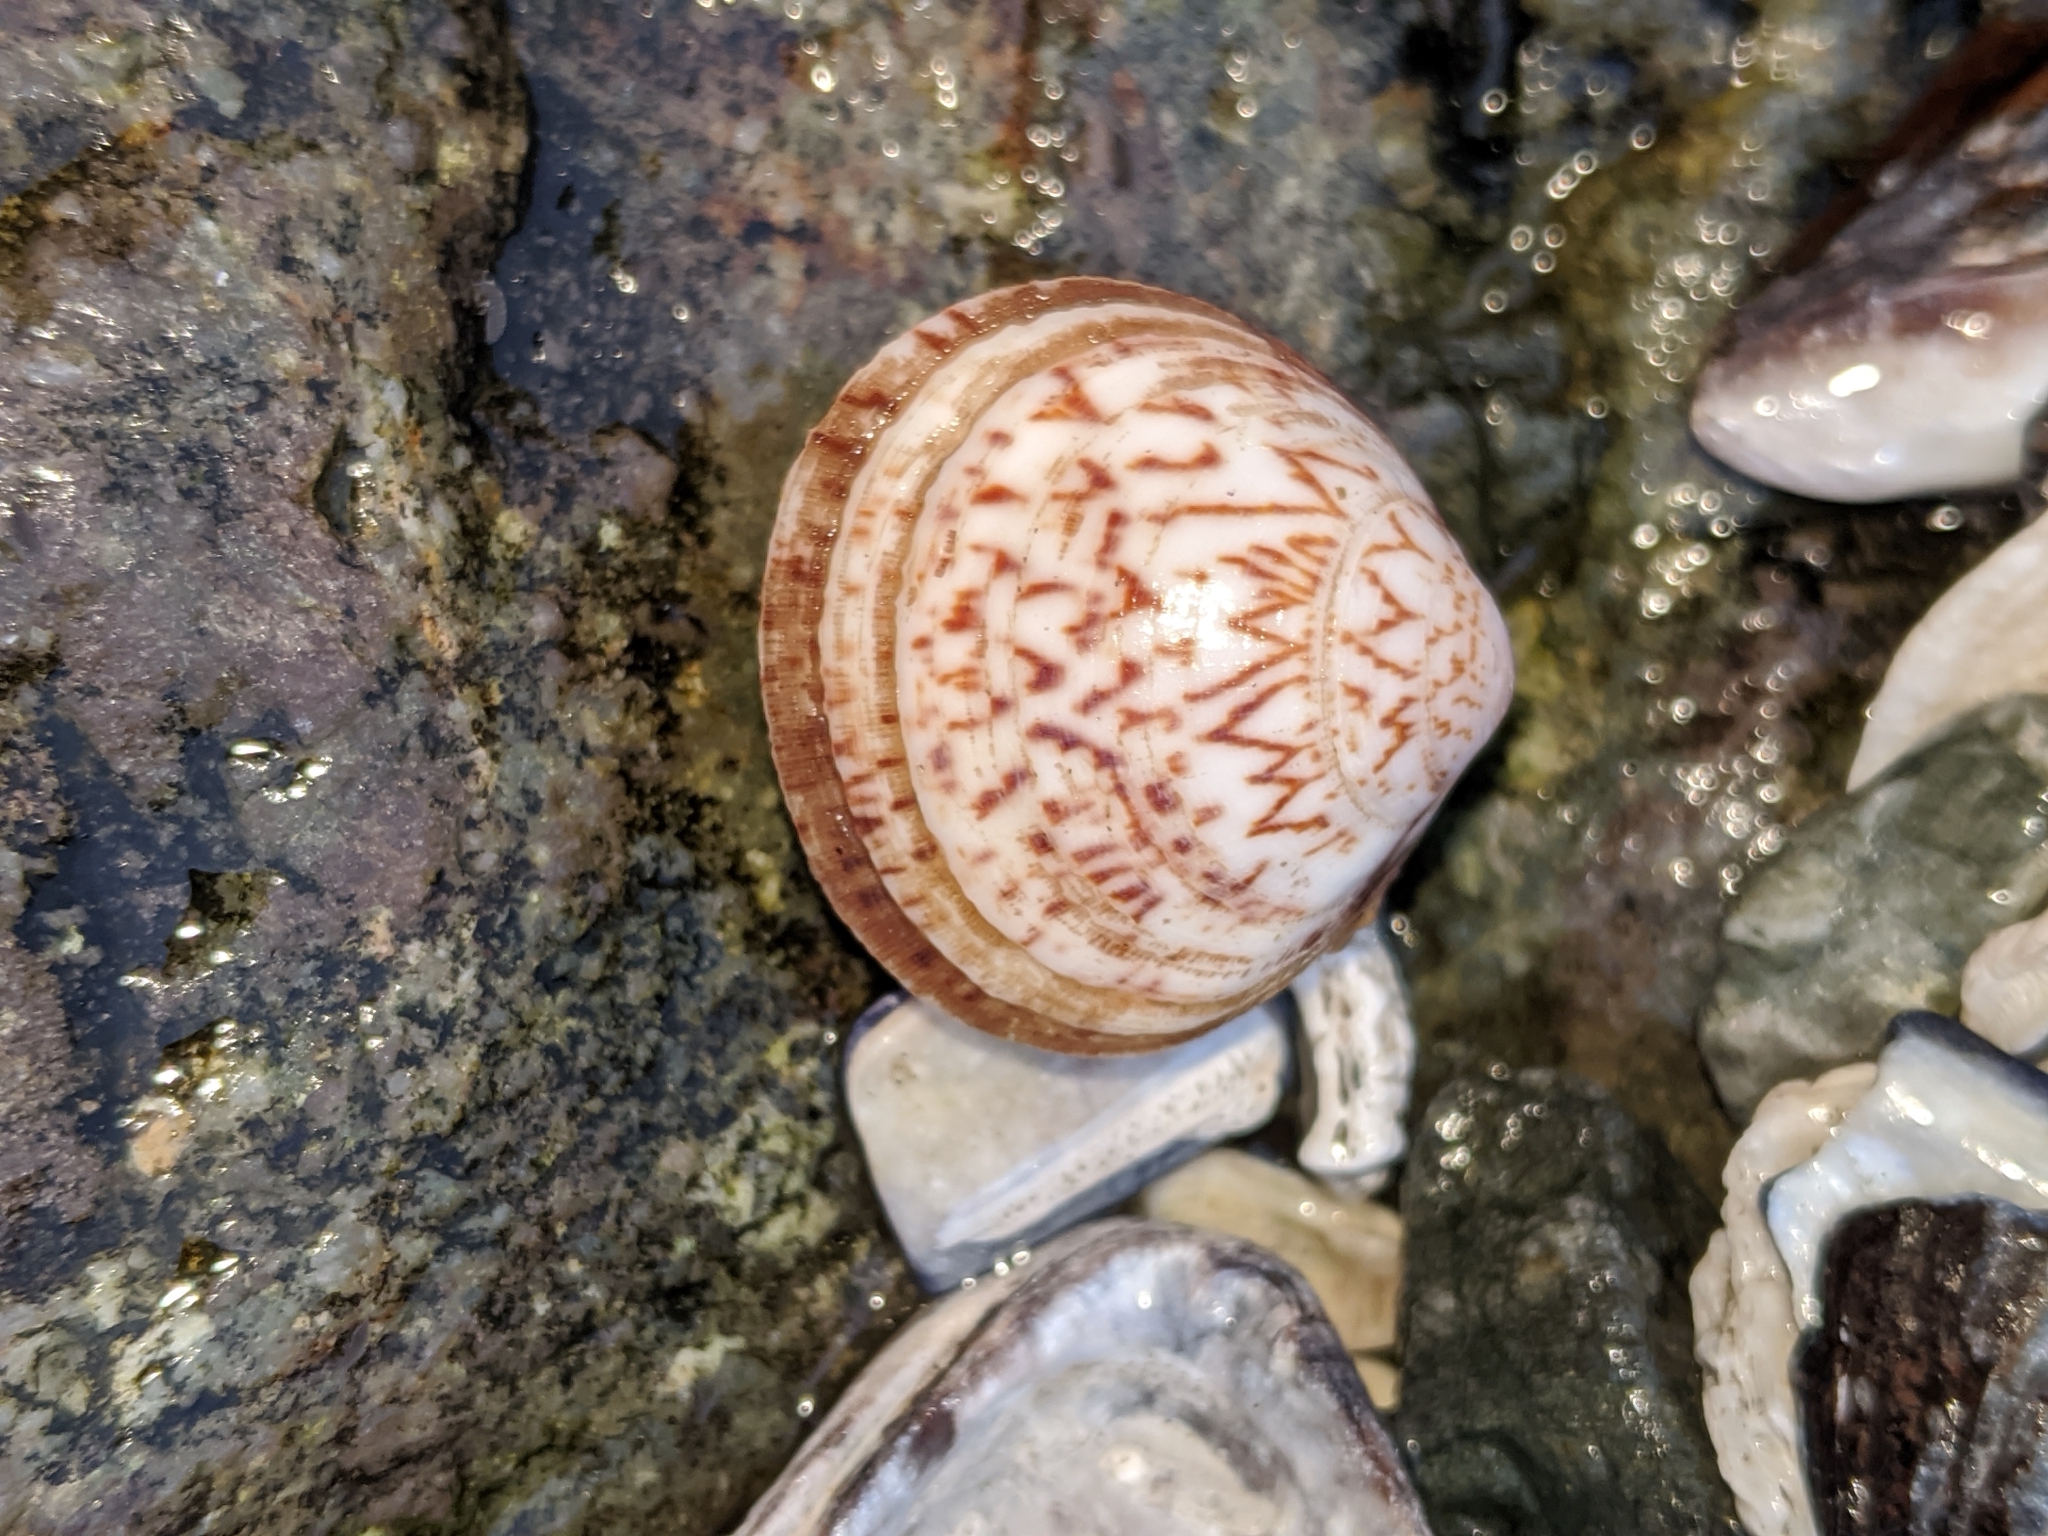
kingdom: Animalia
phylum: Mollusca
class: Bivalvia
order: Arcida
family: Glycymerididae
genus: Glycymeris
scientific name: Glycymeris septentrionalis
